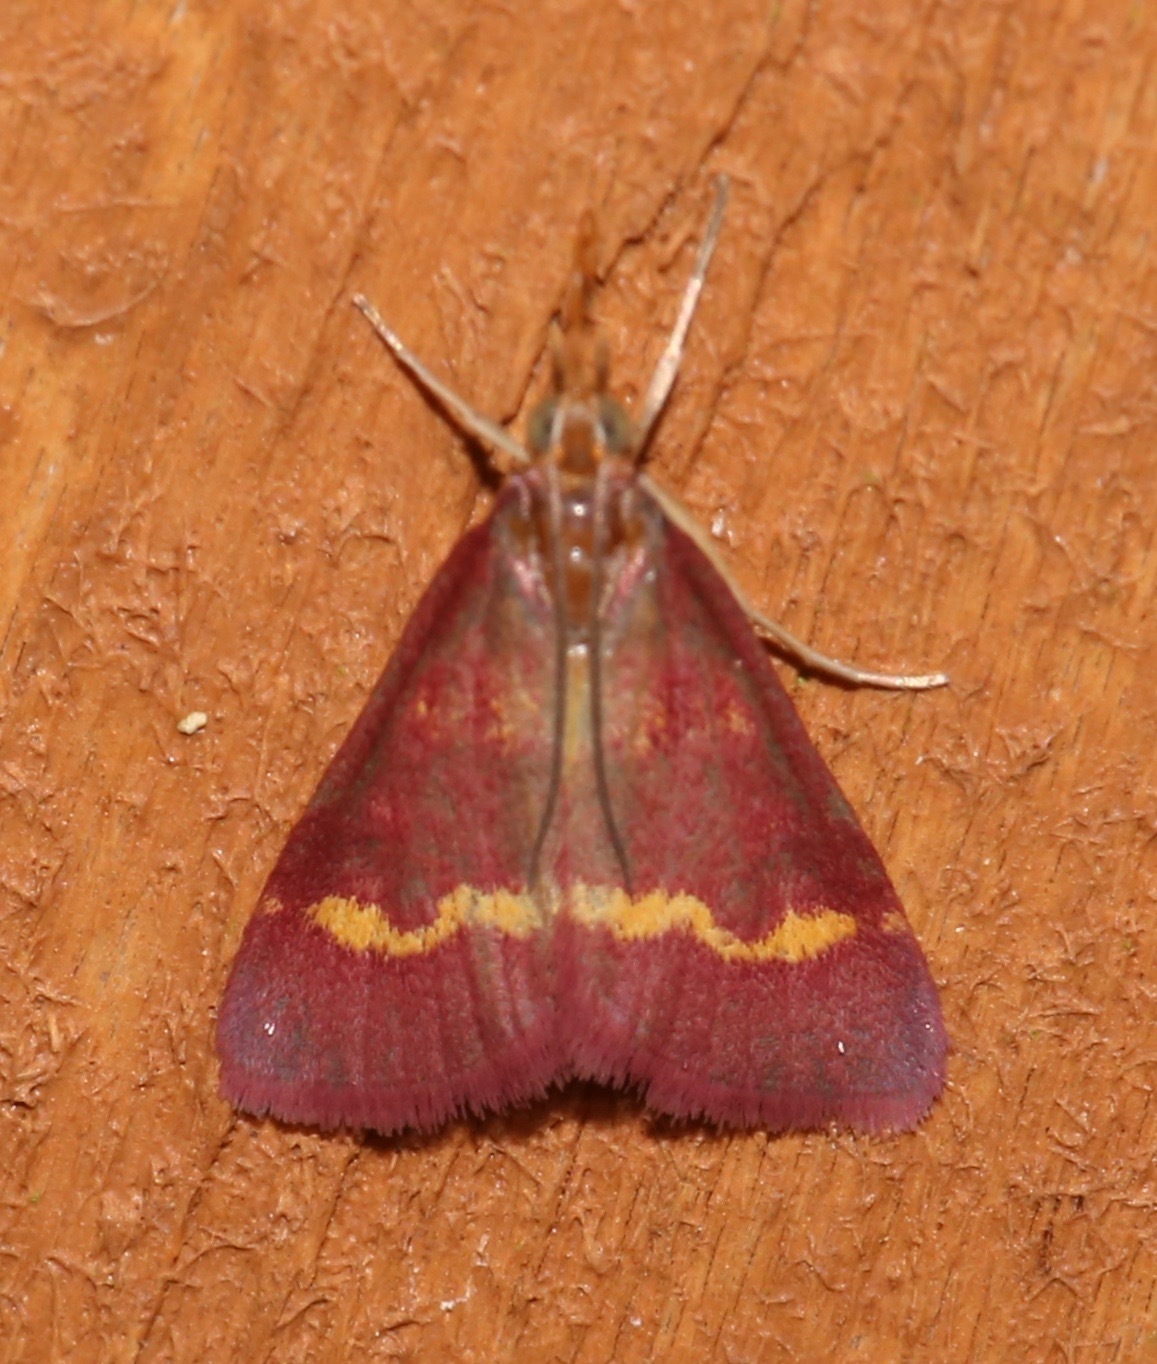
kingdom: Animalia
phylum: Arthropoda
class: Insecta
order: Lepidoptera
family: Crambidae
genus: Pyrausta
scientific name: Pyrausta tyralis
